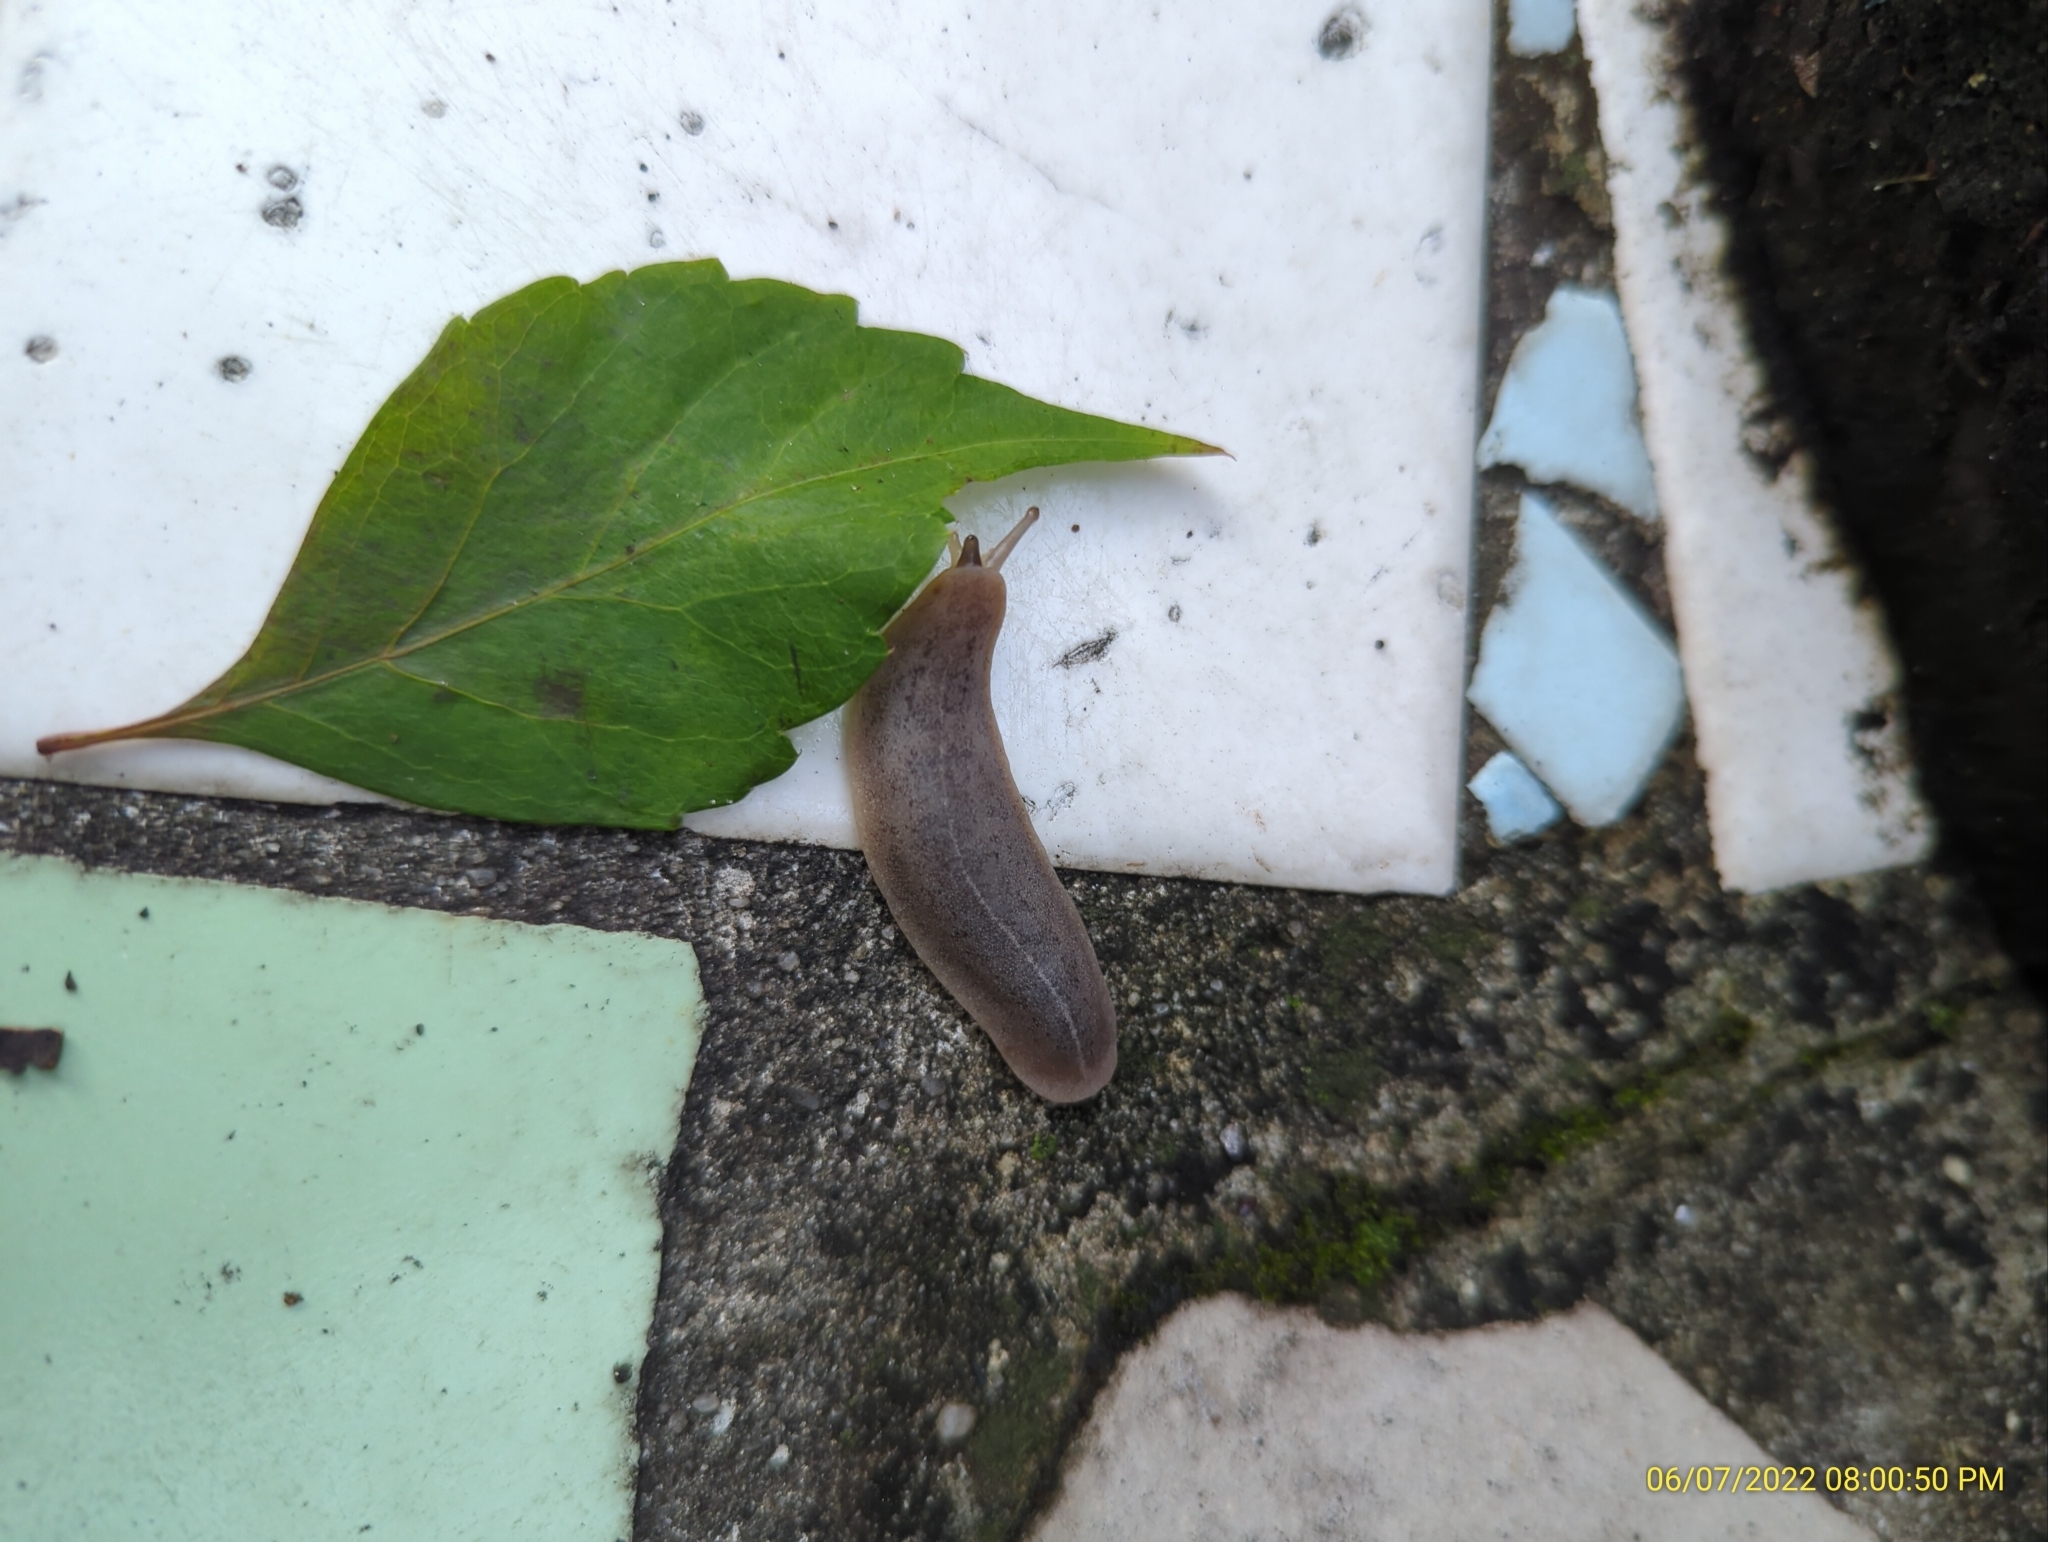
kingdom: Animalia
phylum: Mollusca
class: Gastropoda
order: Systellommatophora
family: Veronicellidae
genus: Leidyula
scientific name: Leidyula floridana
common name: Florida leatherleaf
